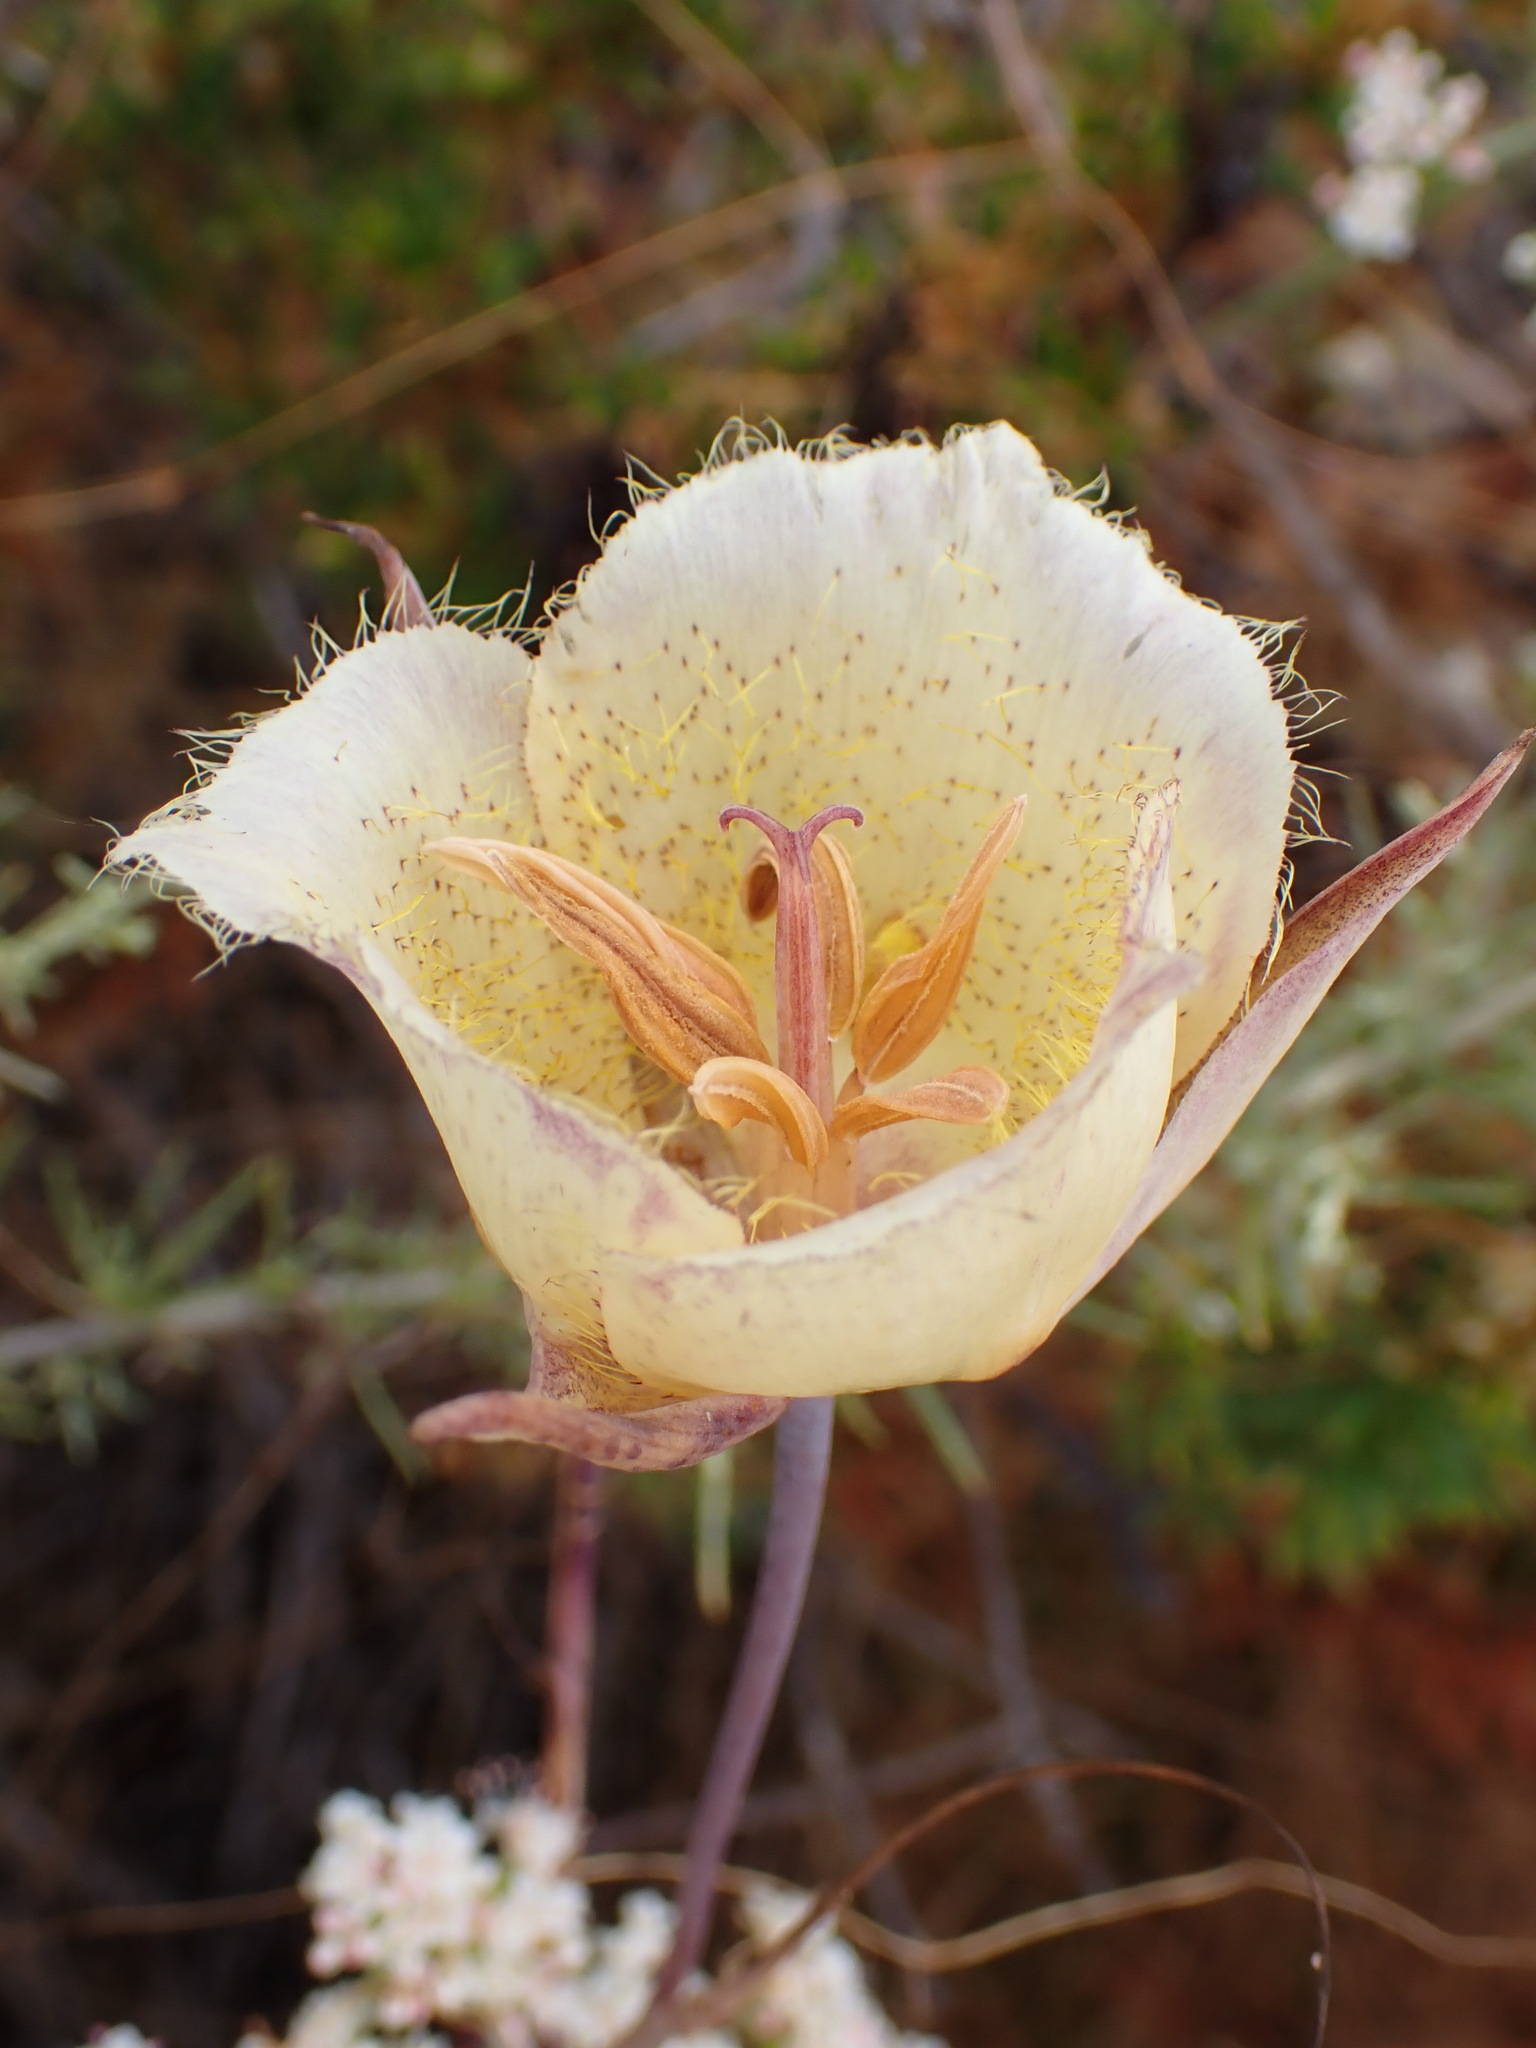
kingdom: Plantae
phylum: Tracheophyta
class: Liliopsida
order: Liliales
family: Liliaceae
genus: Calochortus
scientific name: Calochortus weedii
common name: Weed's mariposa-lily
